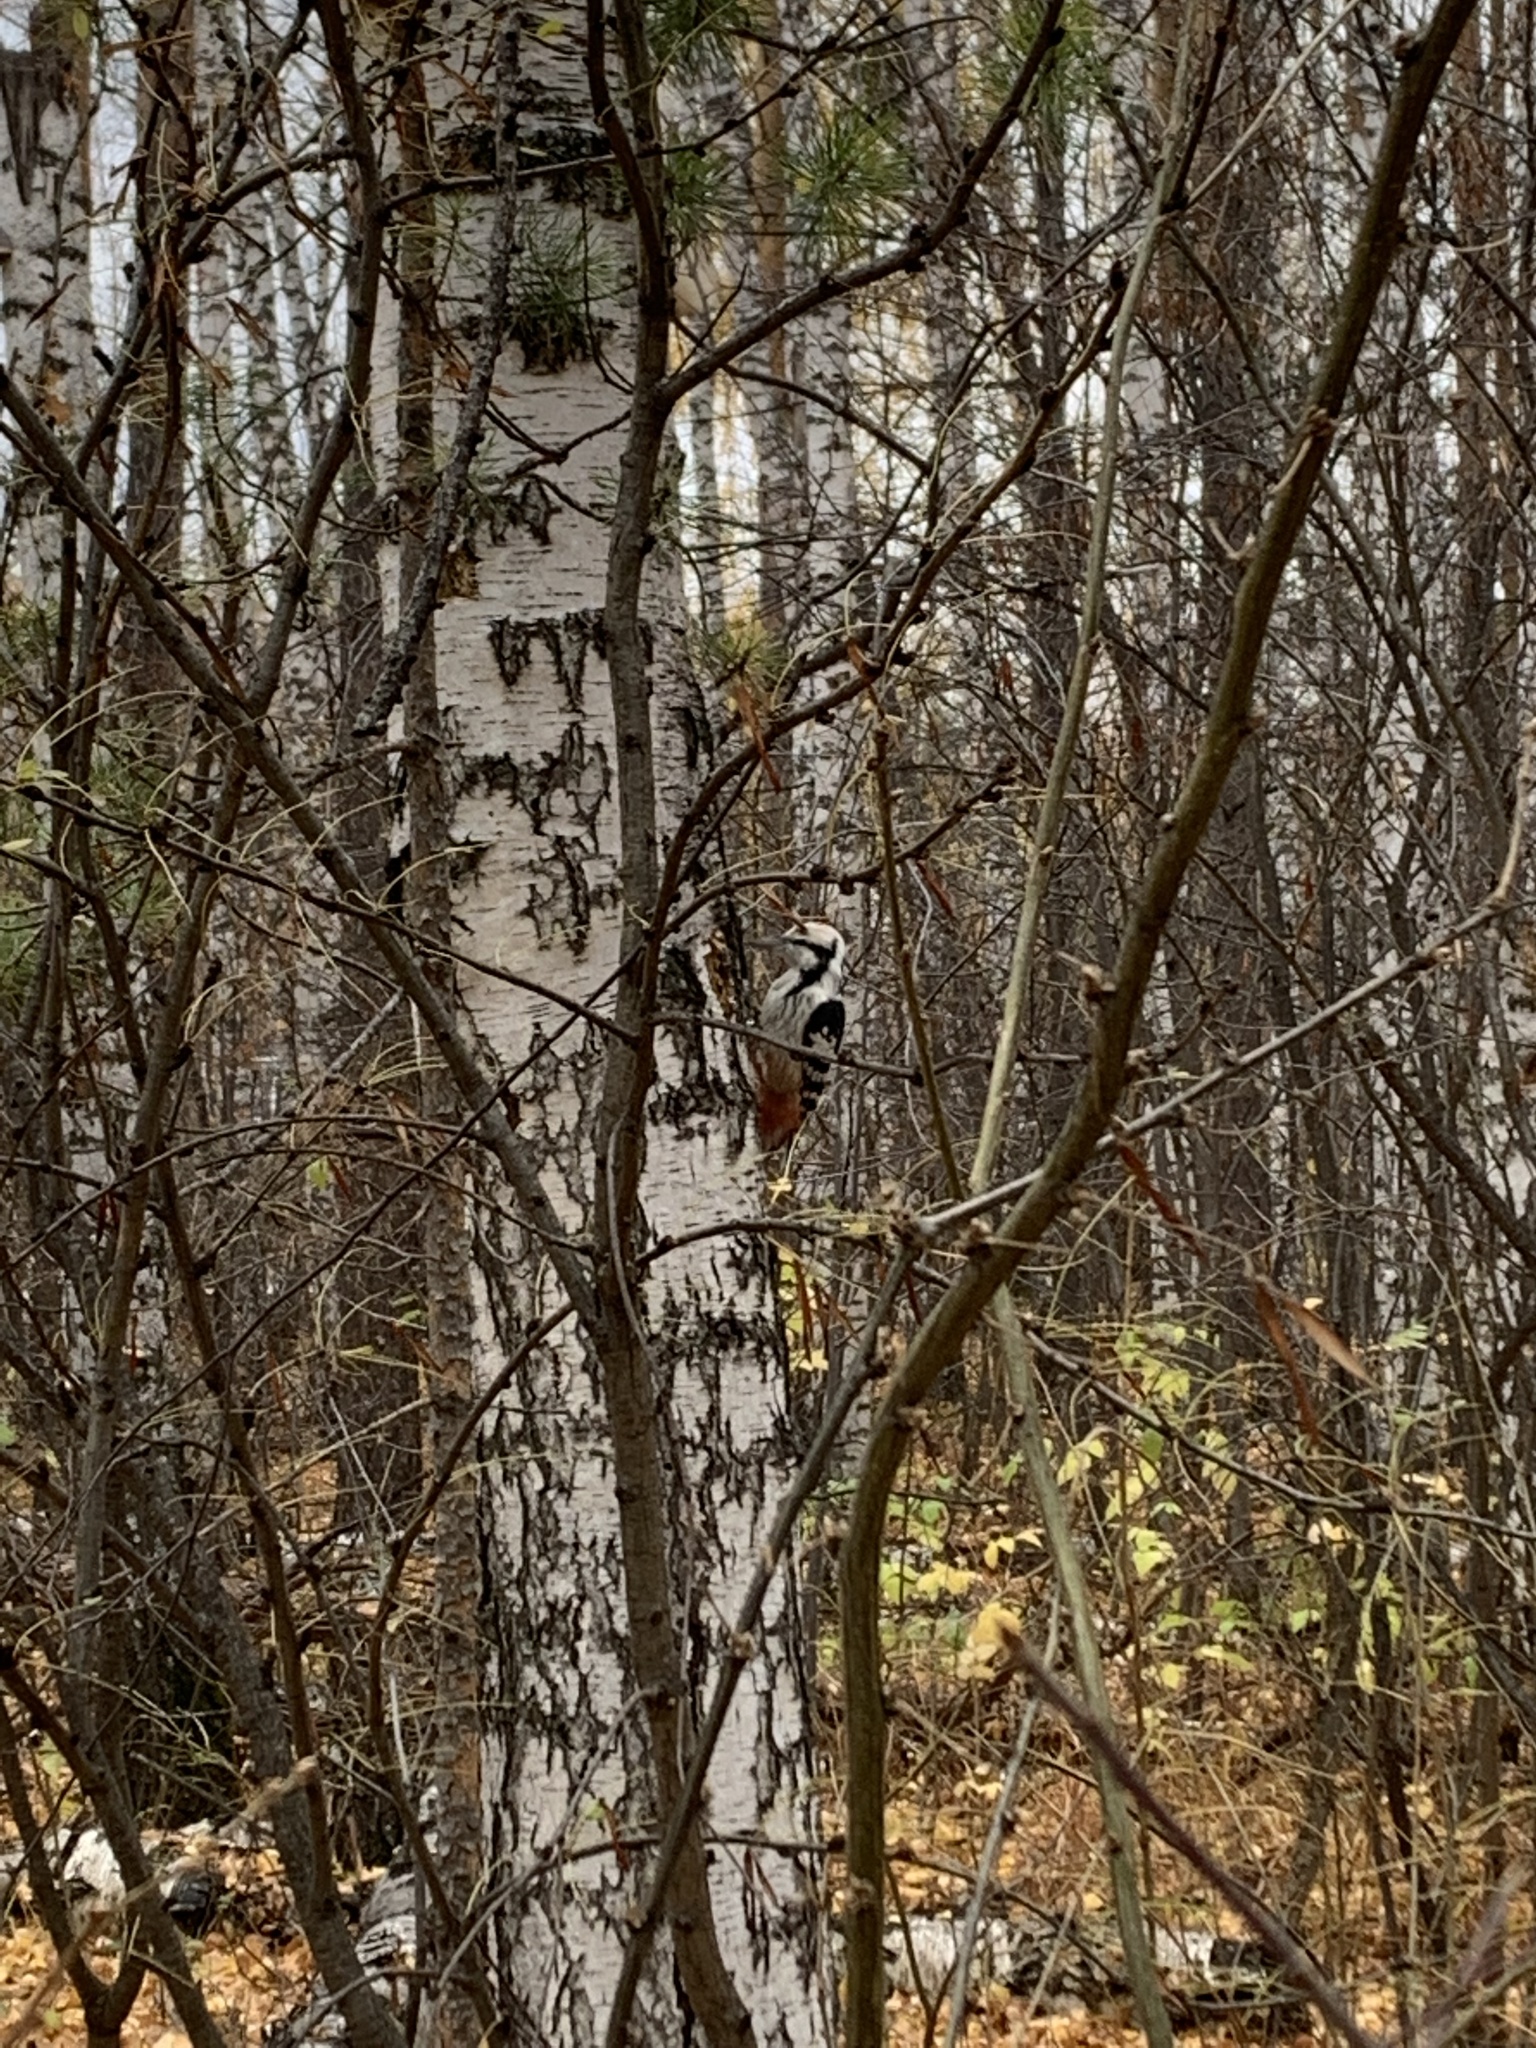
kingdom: Animalia
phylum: Chordata
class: Aves
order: Piciformes
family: Picidae
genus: Dendrocopos
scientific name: Dendrocopos leucotos
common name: White-backed woodpecker
